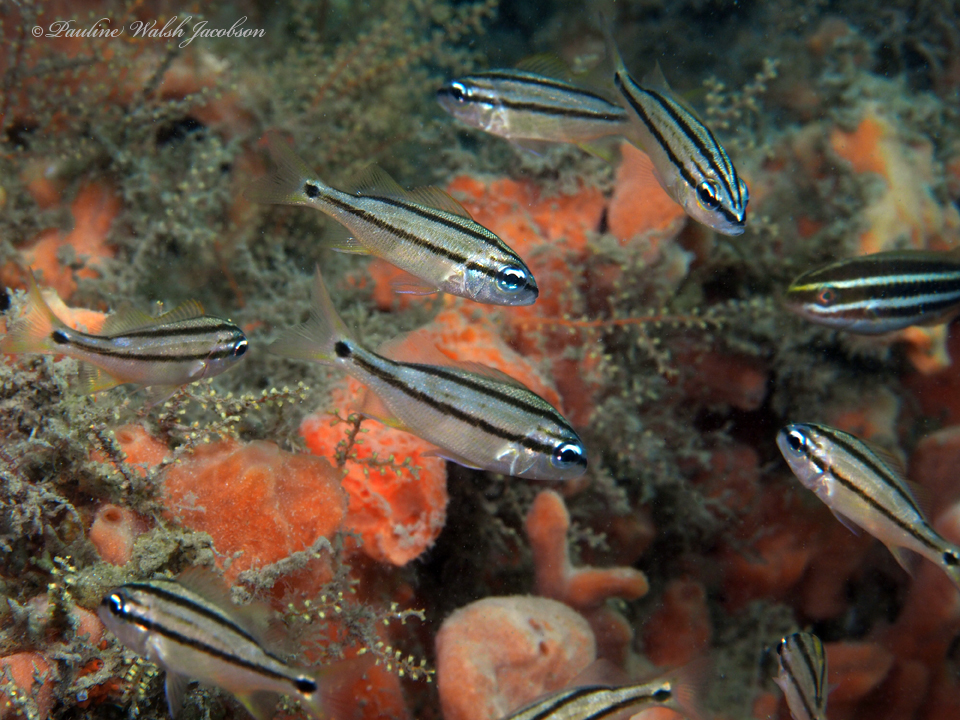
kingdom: Animalia
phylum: Chordata
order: Perciformes
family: Haemulidae
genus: Haemulon
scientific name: Haemulon flavolineatum
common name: French grunt
